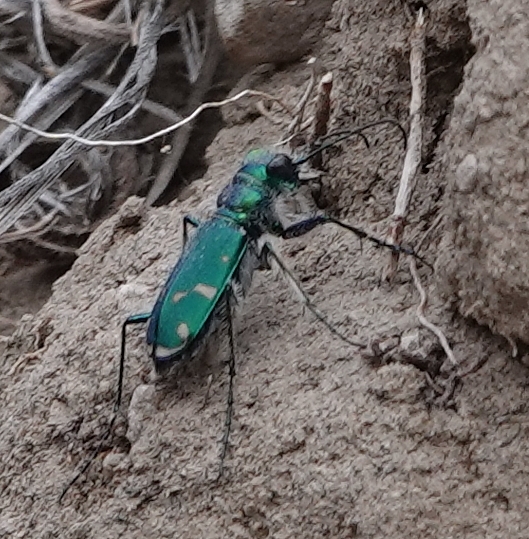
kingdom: Animalia
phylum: Arthropoda
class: Insecta
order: Coleoptera
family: Carabidae
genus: Cicindela
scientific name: Cicindela denverensis
